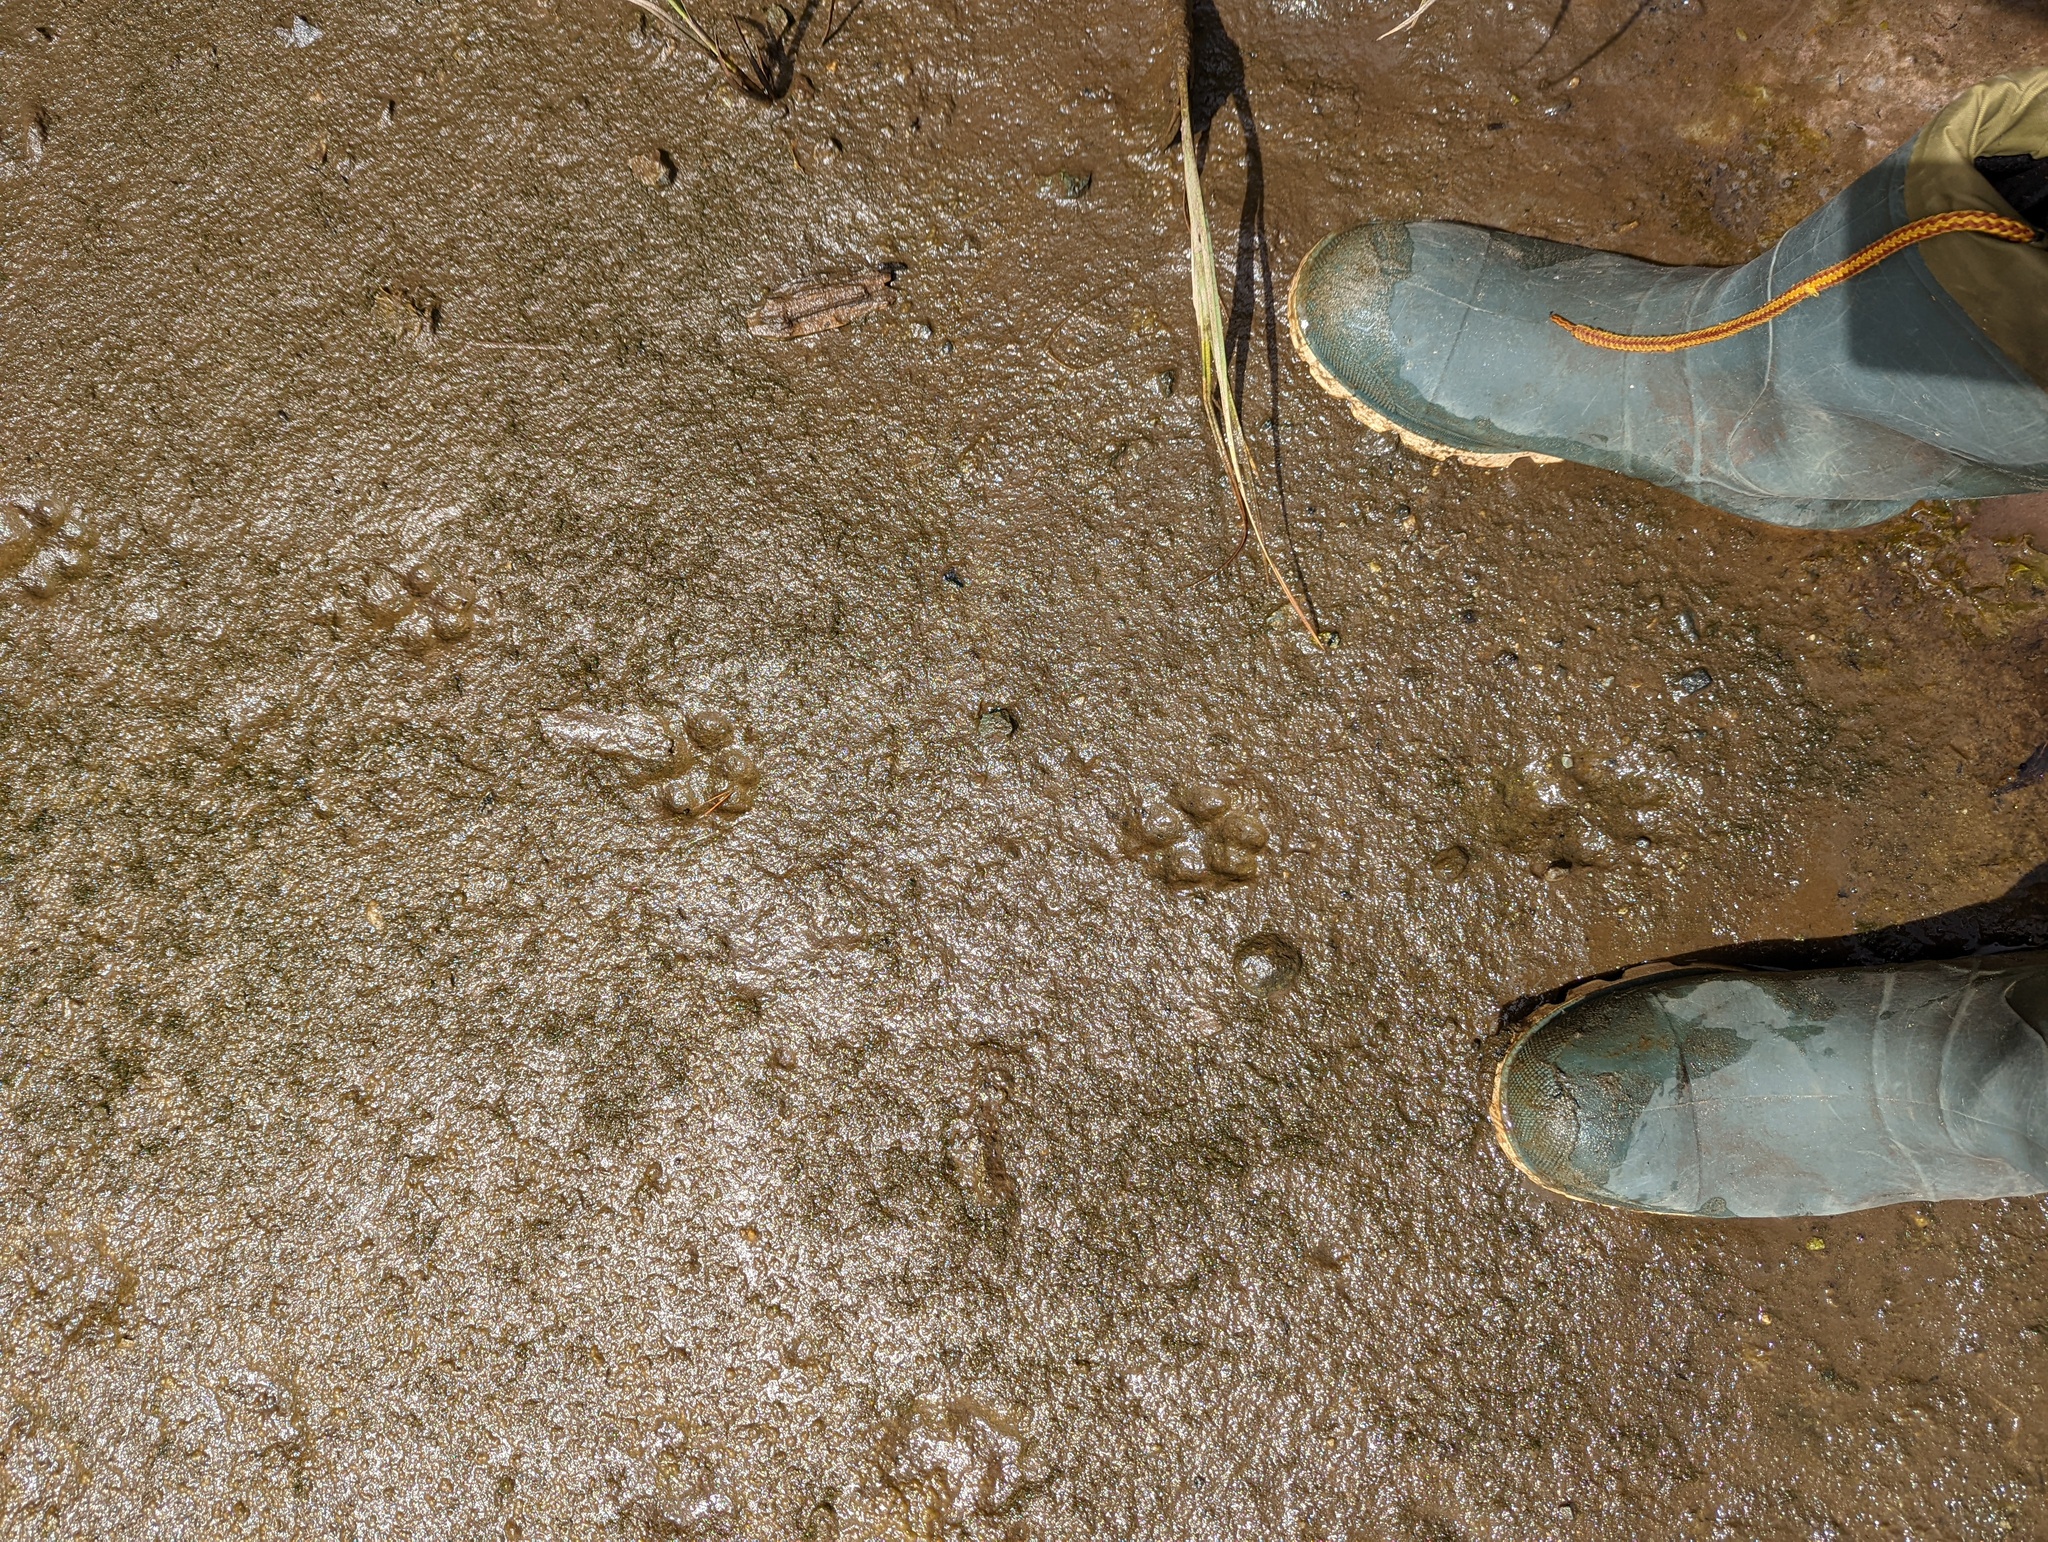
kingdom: Animalia
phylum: Chordata
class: Mammalia
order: Carnivora
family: Canidae
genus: Canis
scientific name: Canis lupus
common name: Gray wolf
